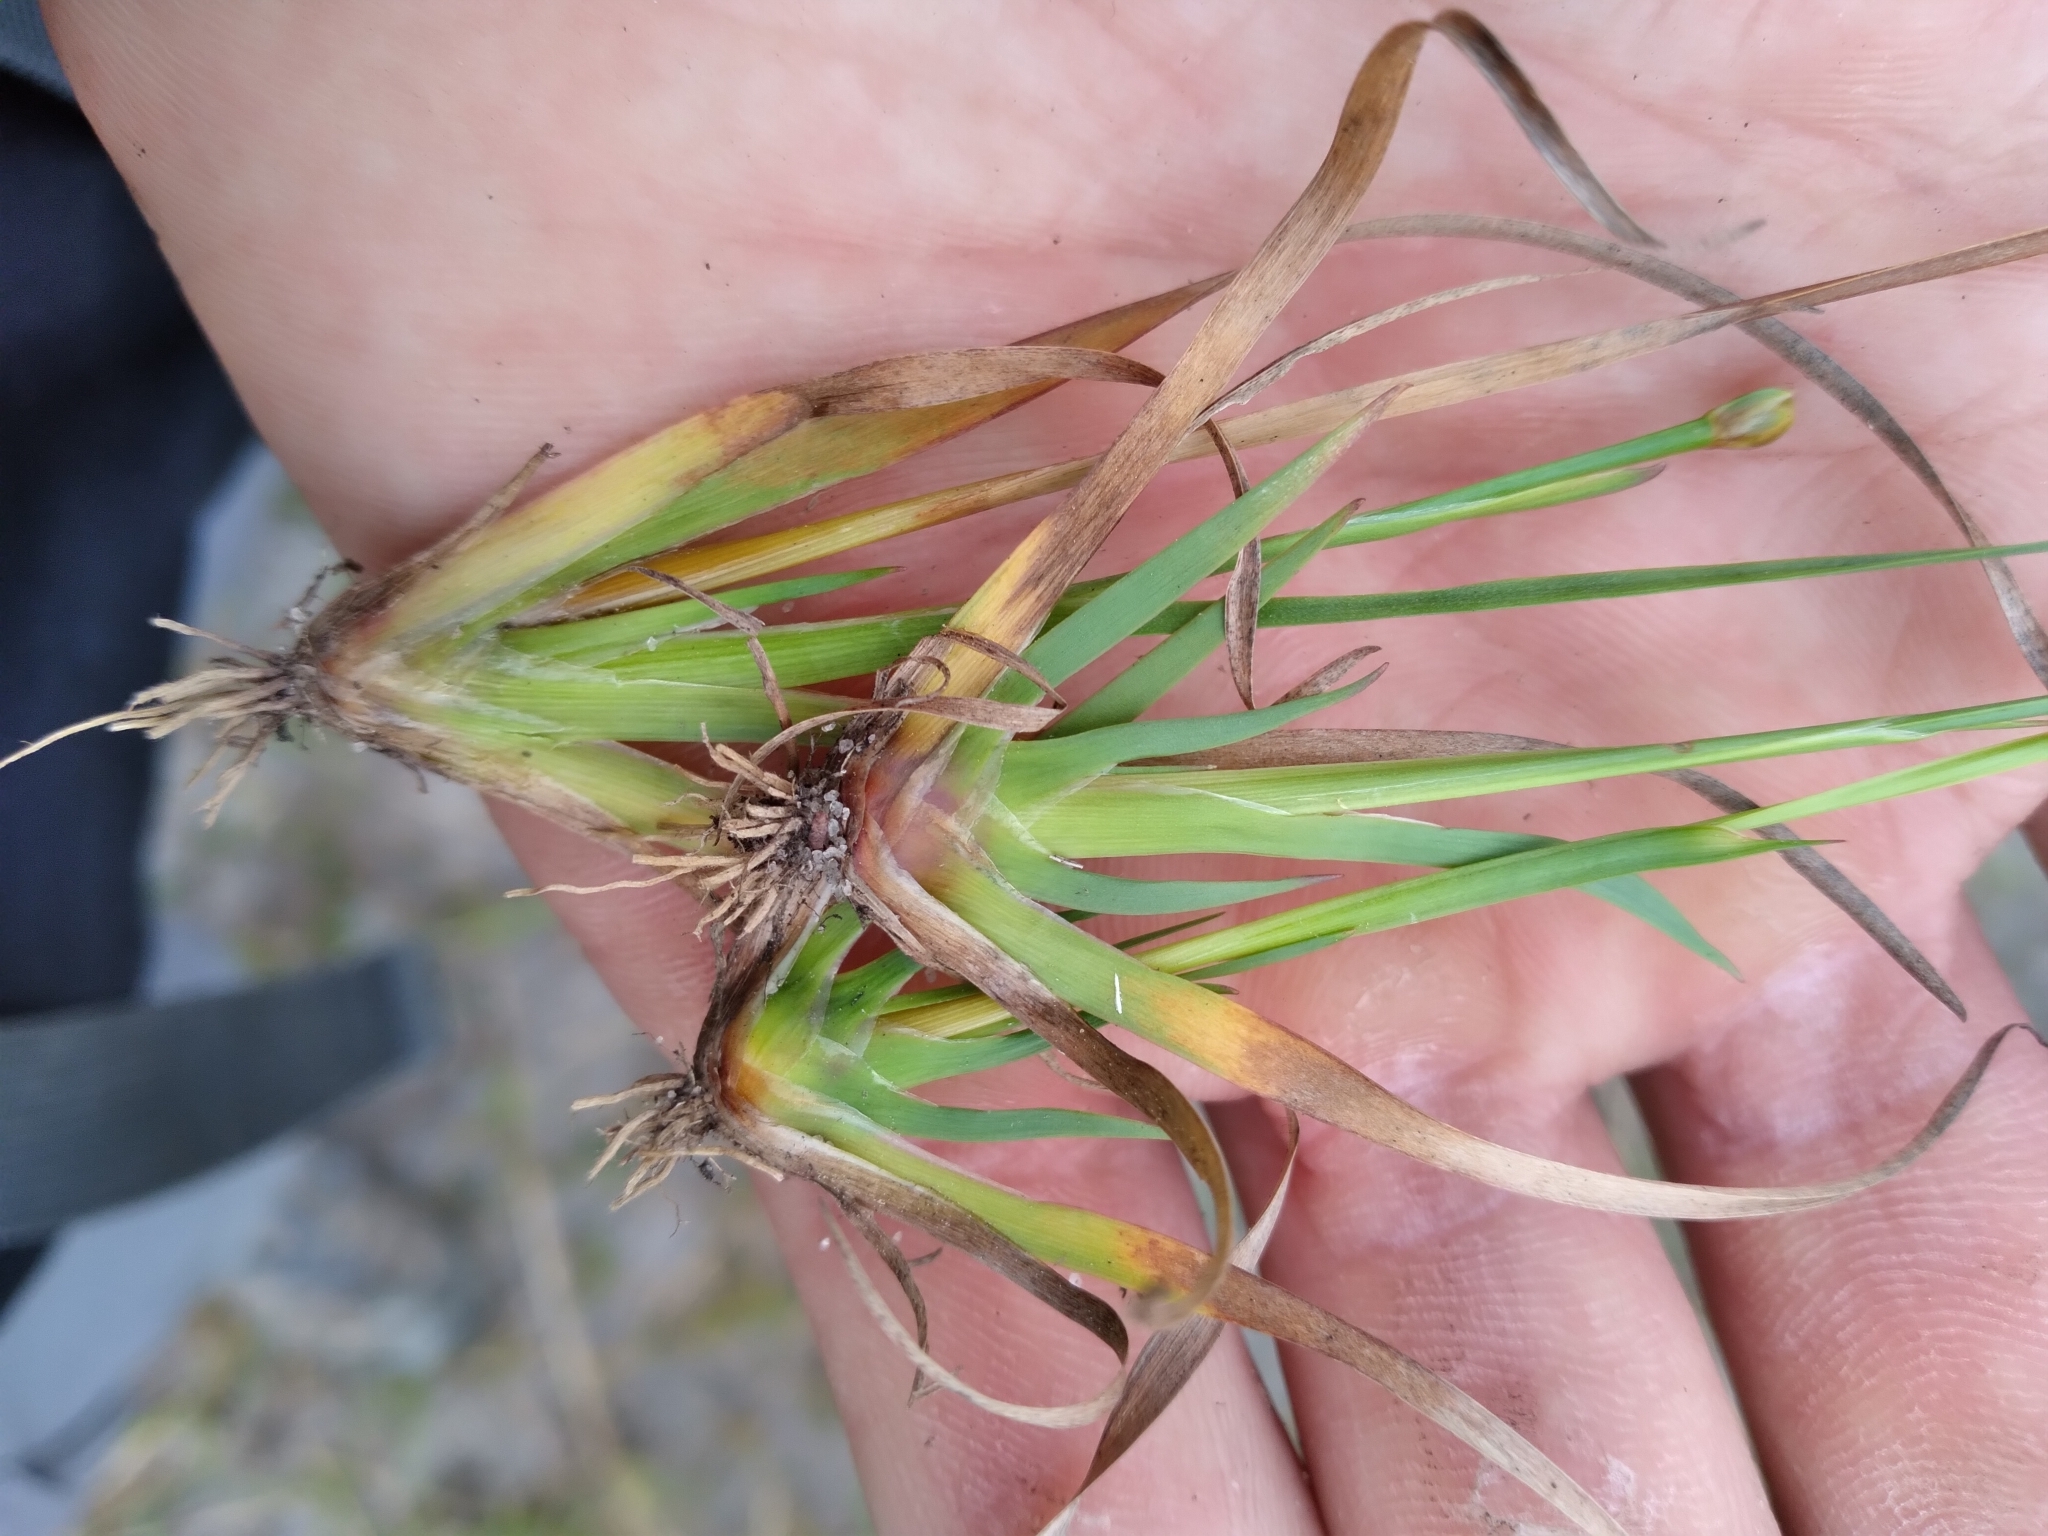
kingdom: Plantae
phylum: Tracheophyta
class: Liliopsida
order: Poales
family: Xyridaceae
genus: Xyris
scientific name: Xyris ambigua
